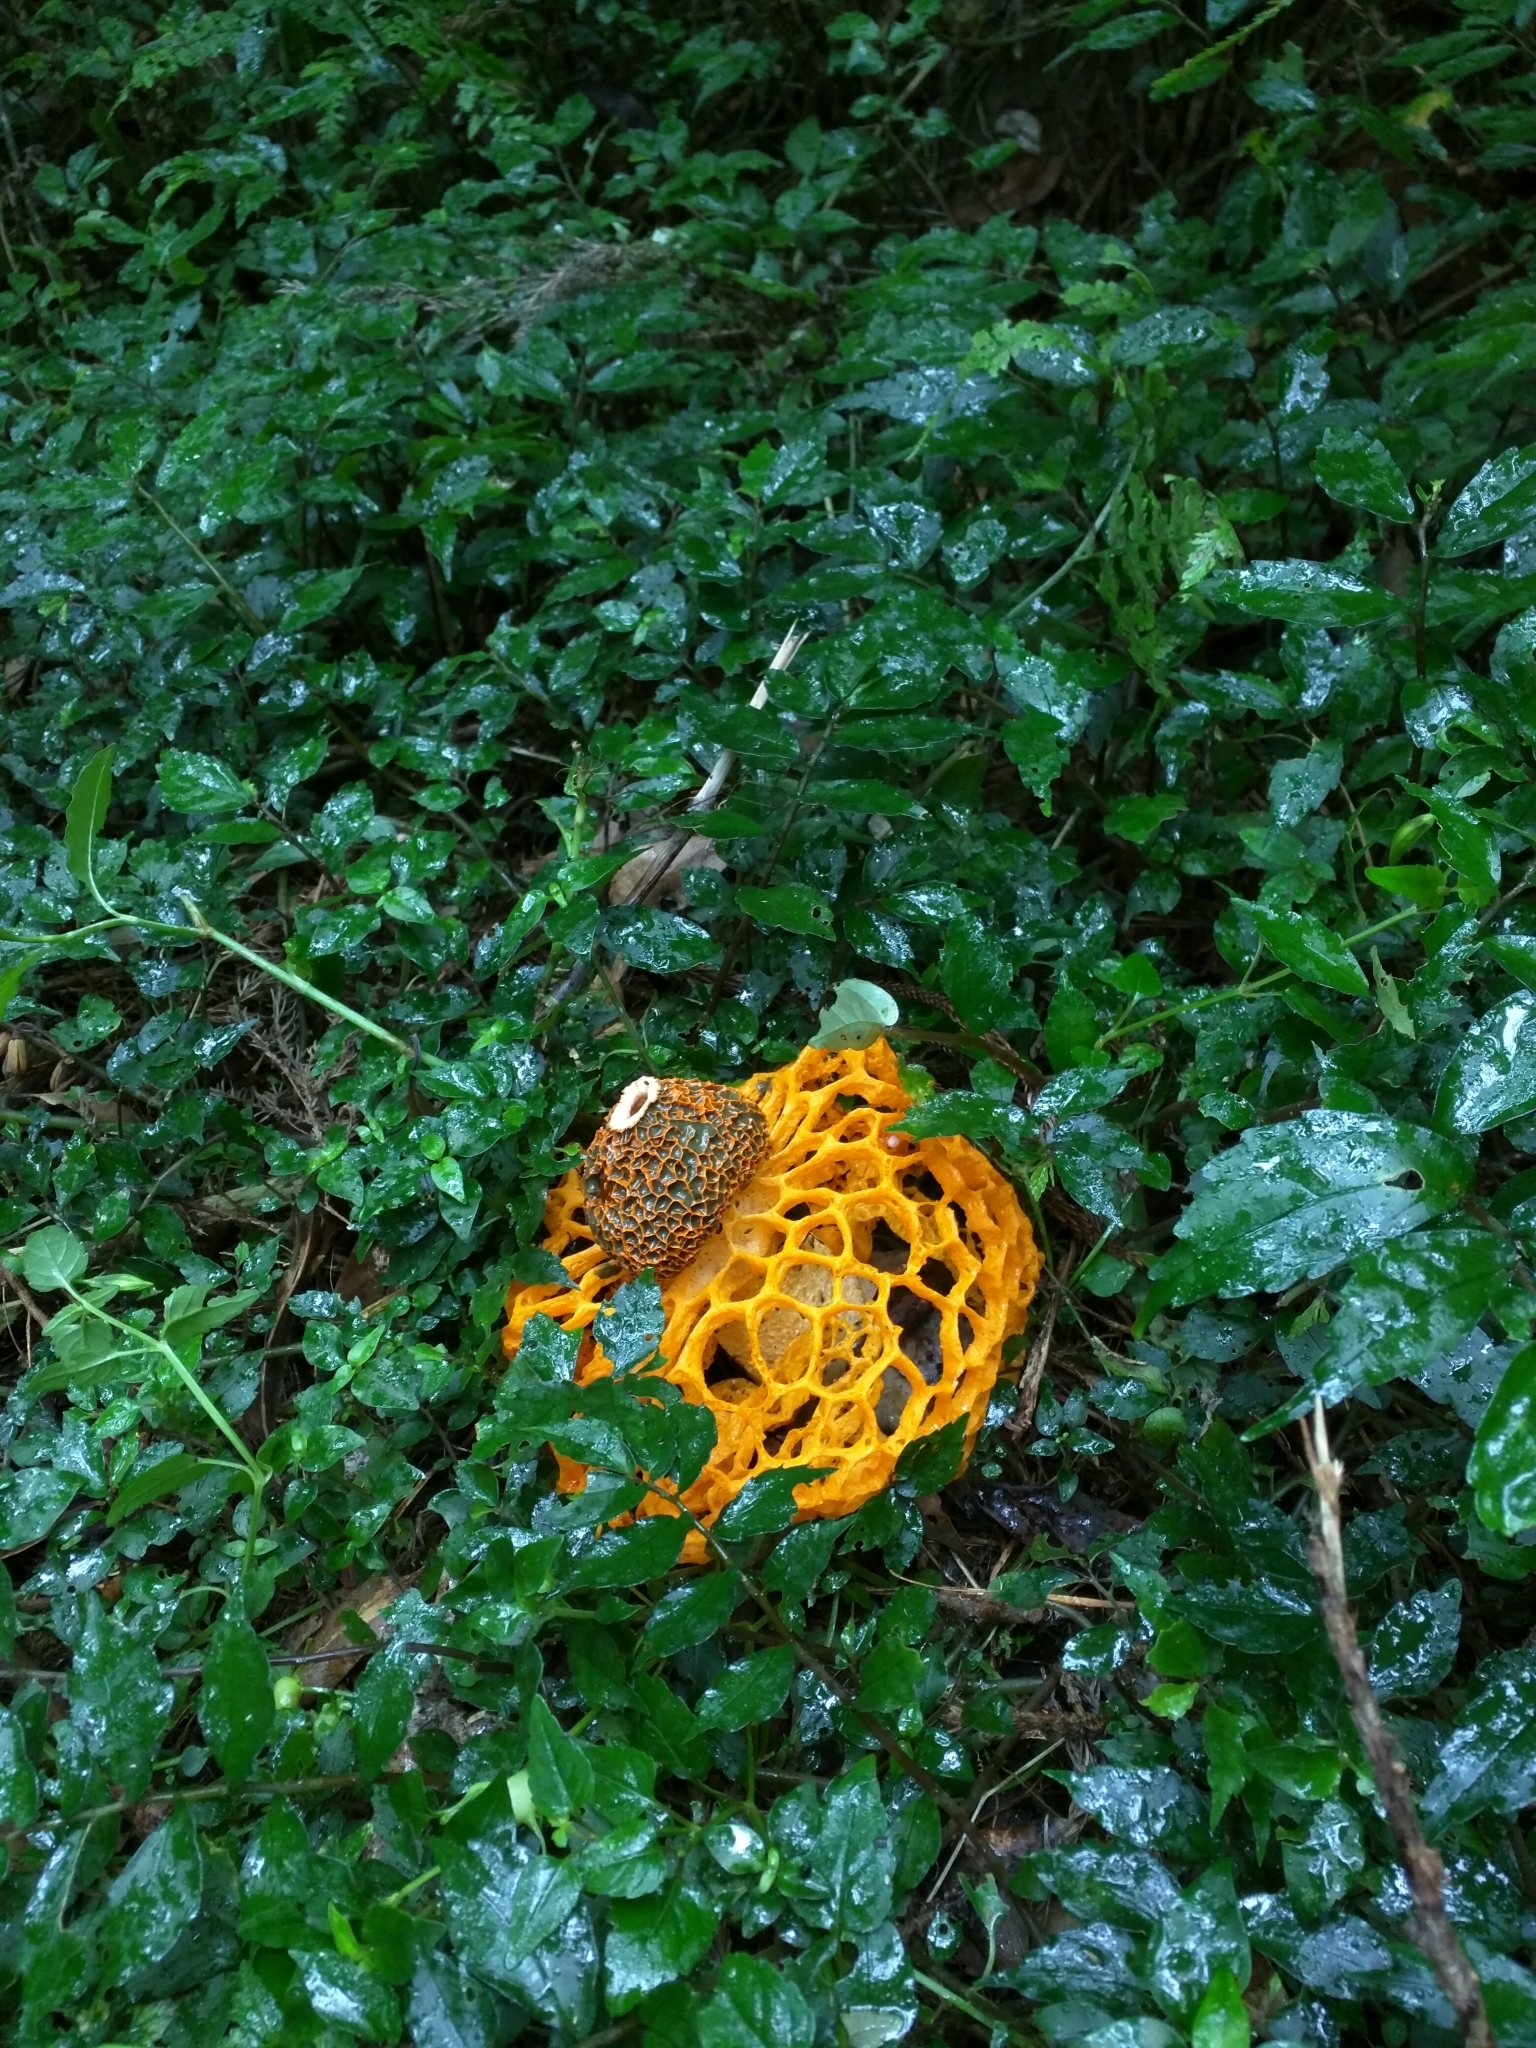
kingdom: Fungi
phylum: Basidiomycota
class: Agaricomycetes
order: Phallales
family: Phallaceae
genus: Phallus
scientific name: Phallus luteus
